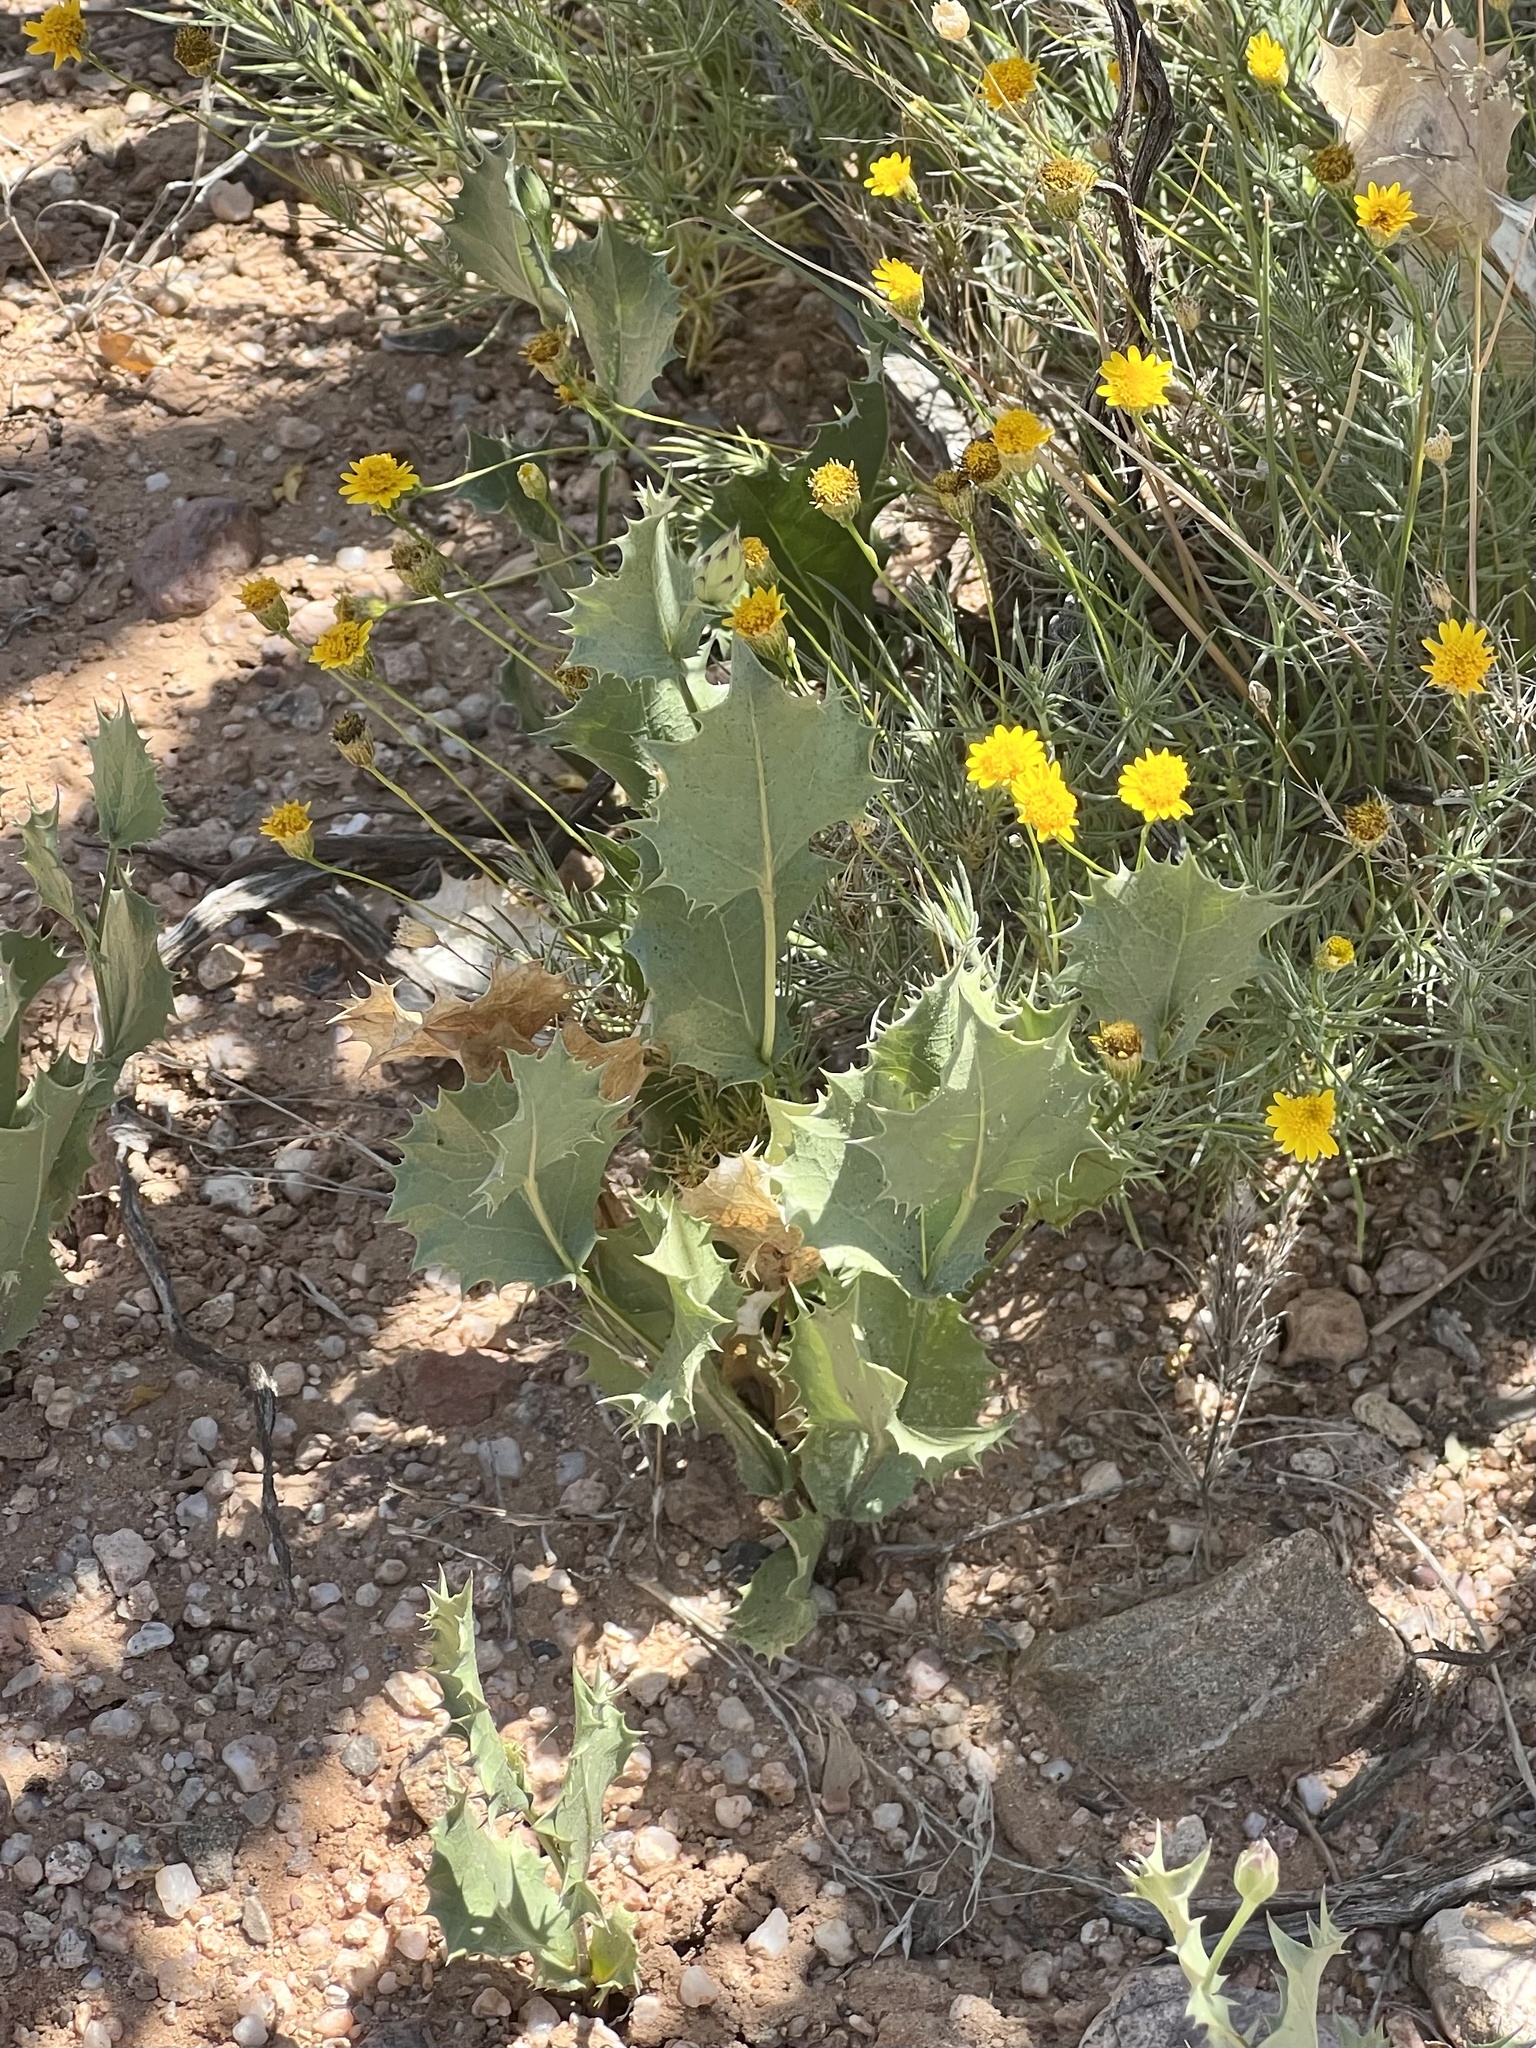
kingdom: Plantae
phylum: Tracheophyta
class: Magnoliopsida
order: Asterales
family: Asteraceae
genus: Acourtia
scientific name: Acourtia nana
